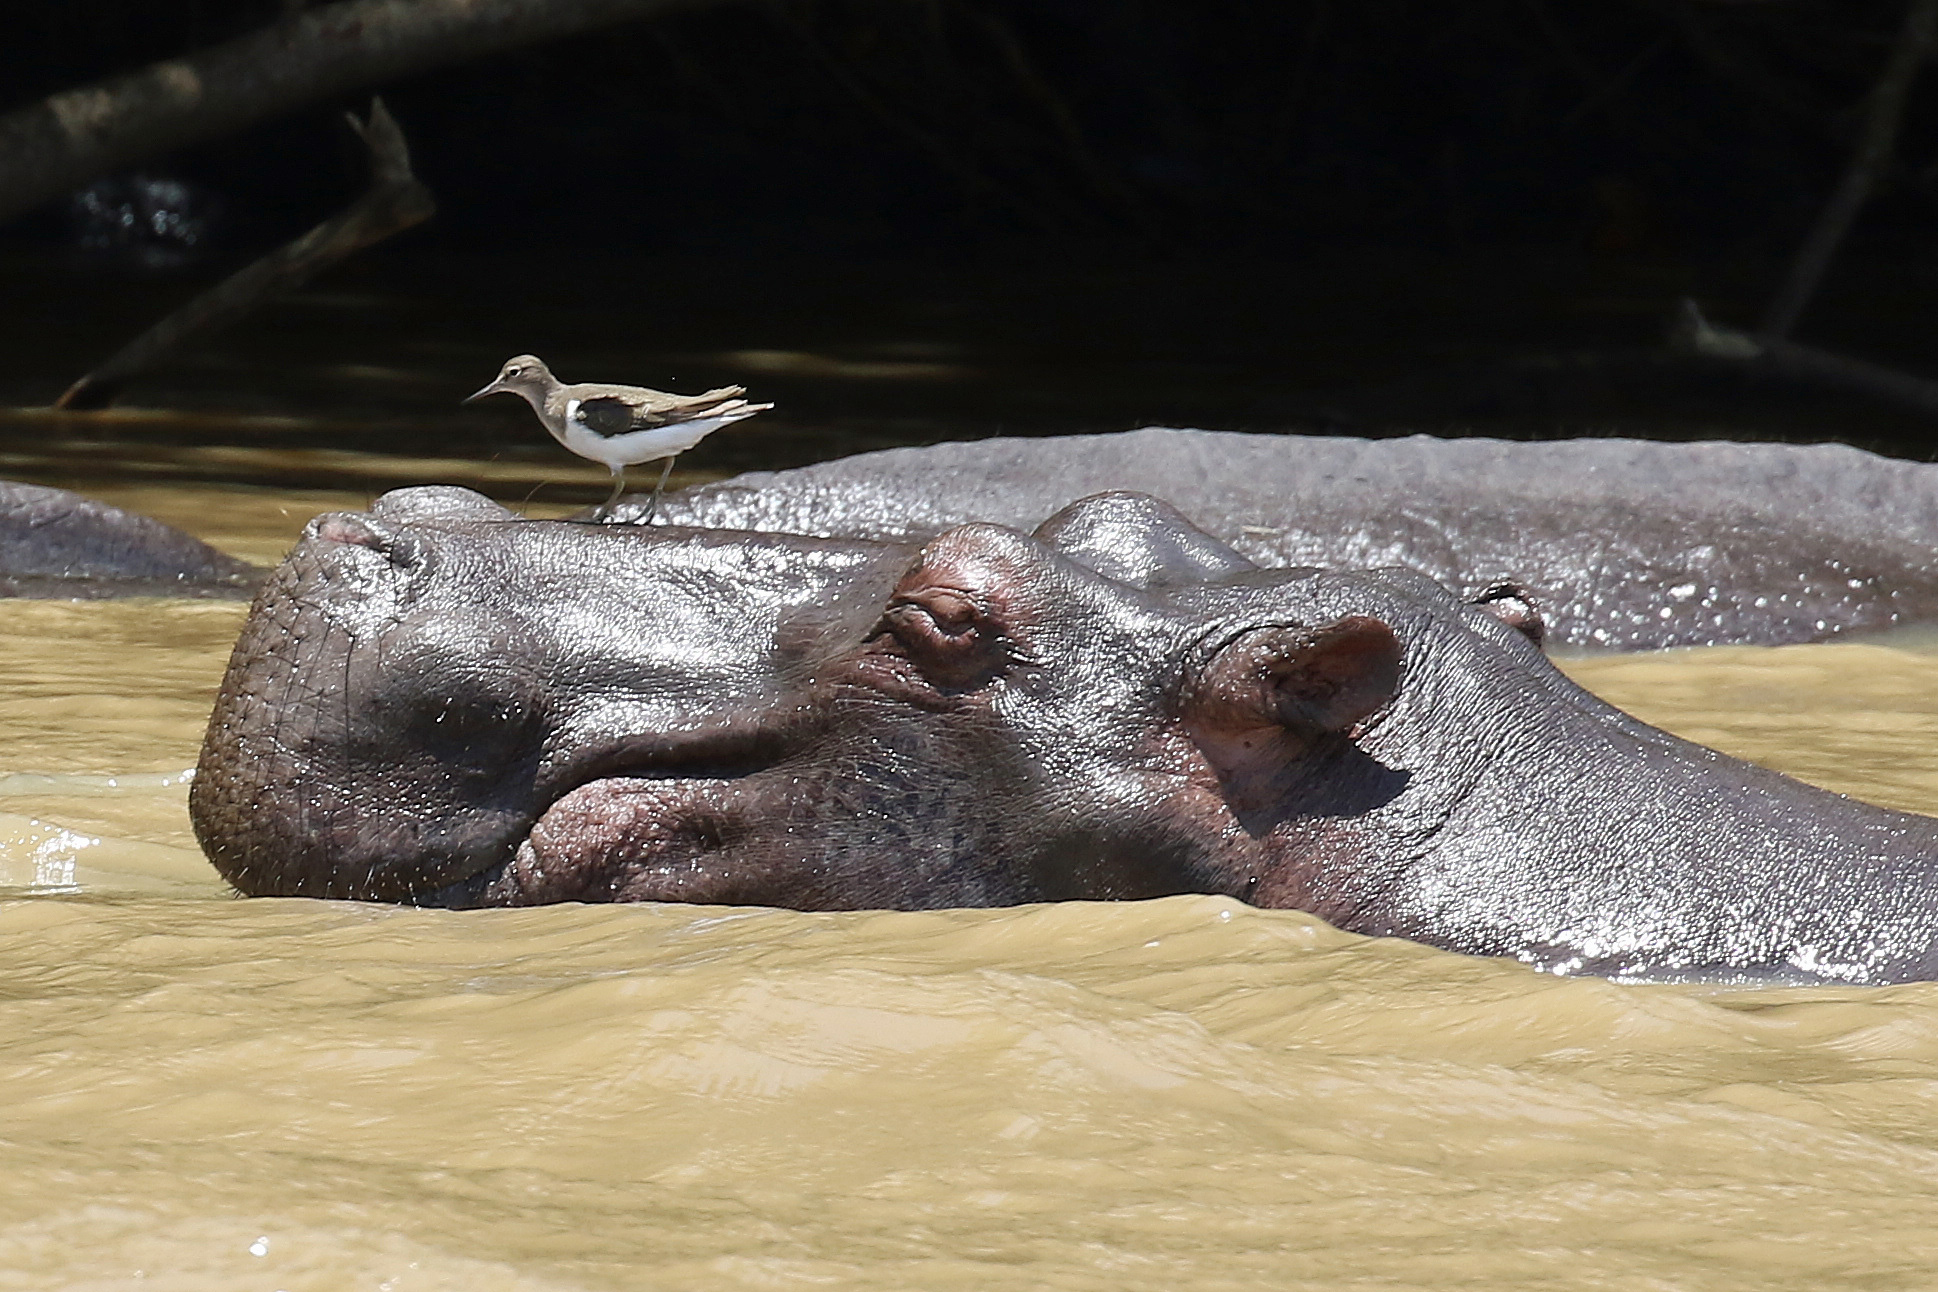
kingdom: Animalia
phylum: Chordata
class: Aves
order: Charadriiformes
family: Scolopacidae
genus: Actitis
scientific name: Actitis hypoleucos
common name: Common sandpiper
